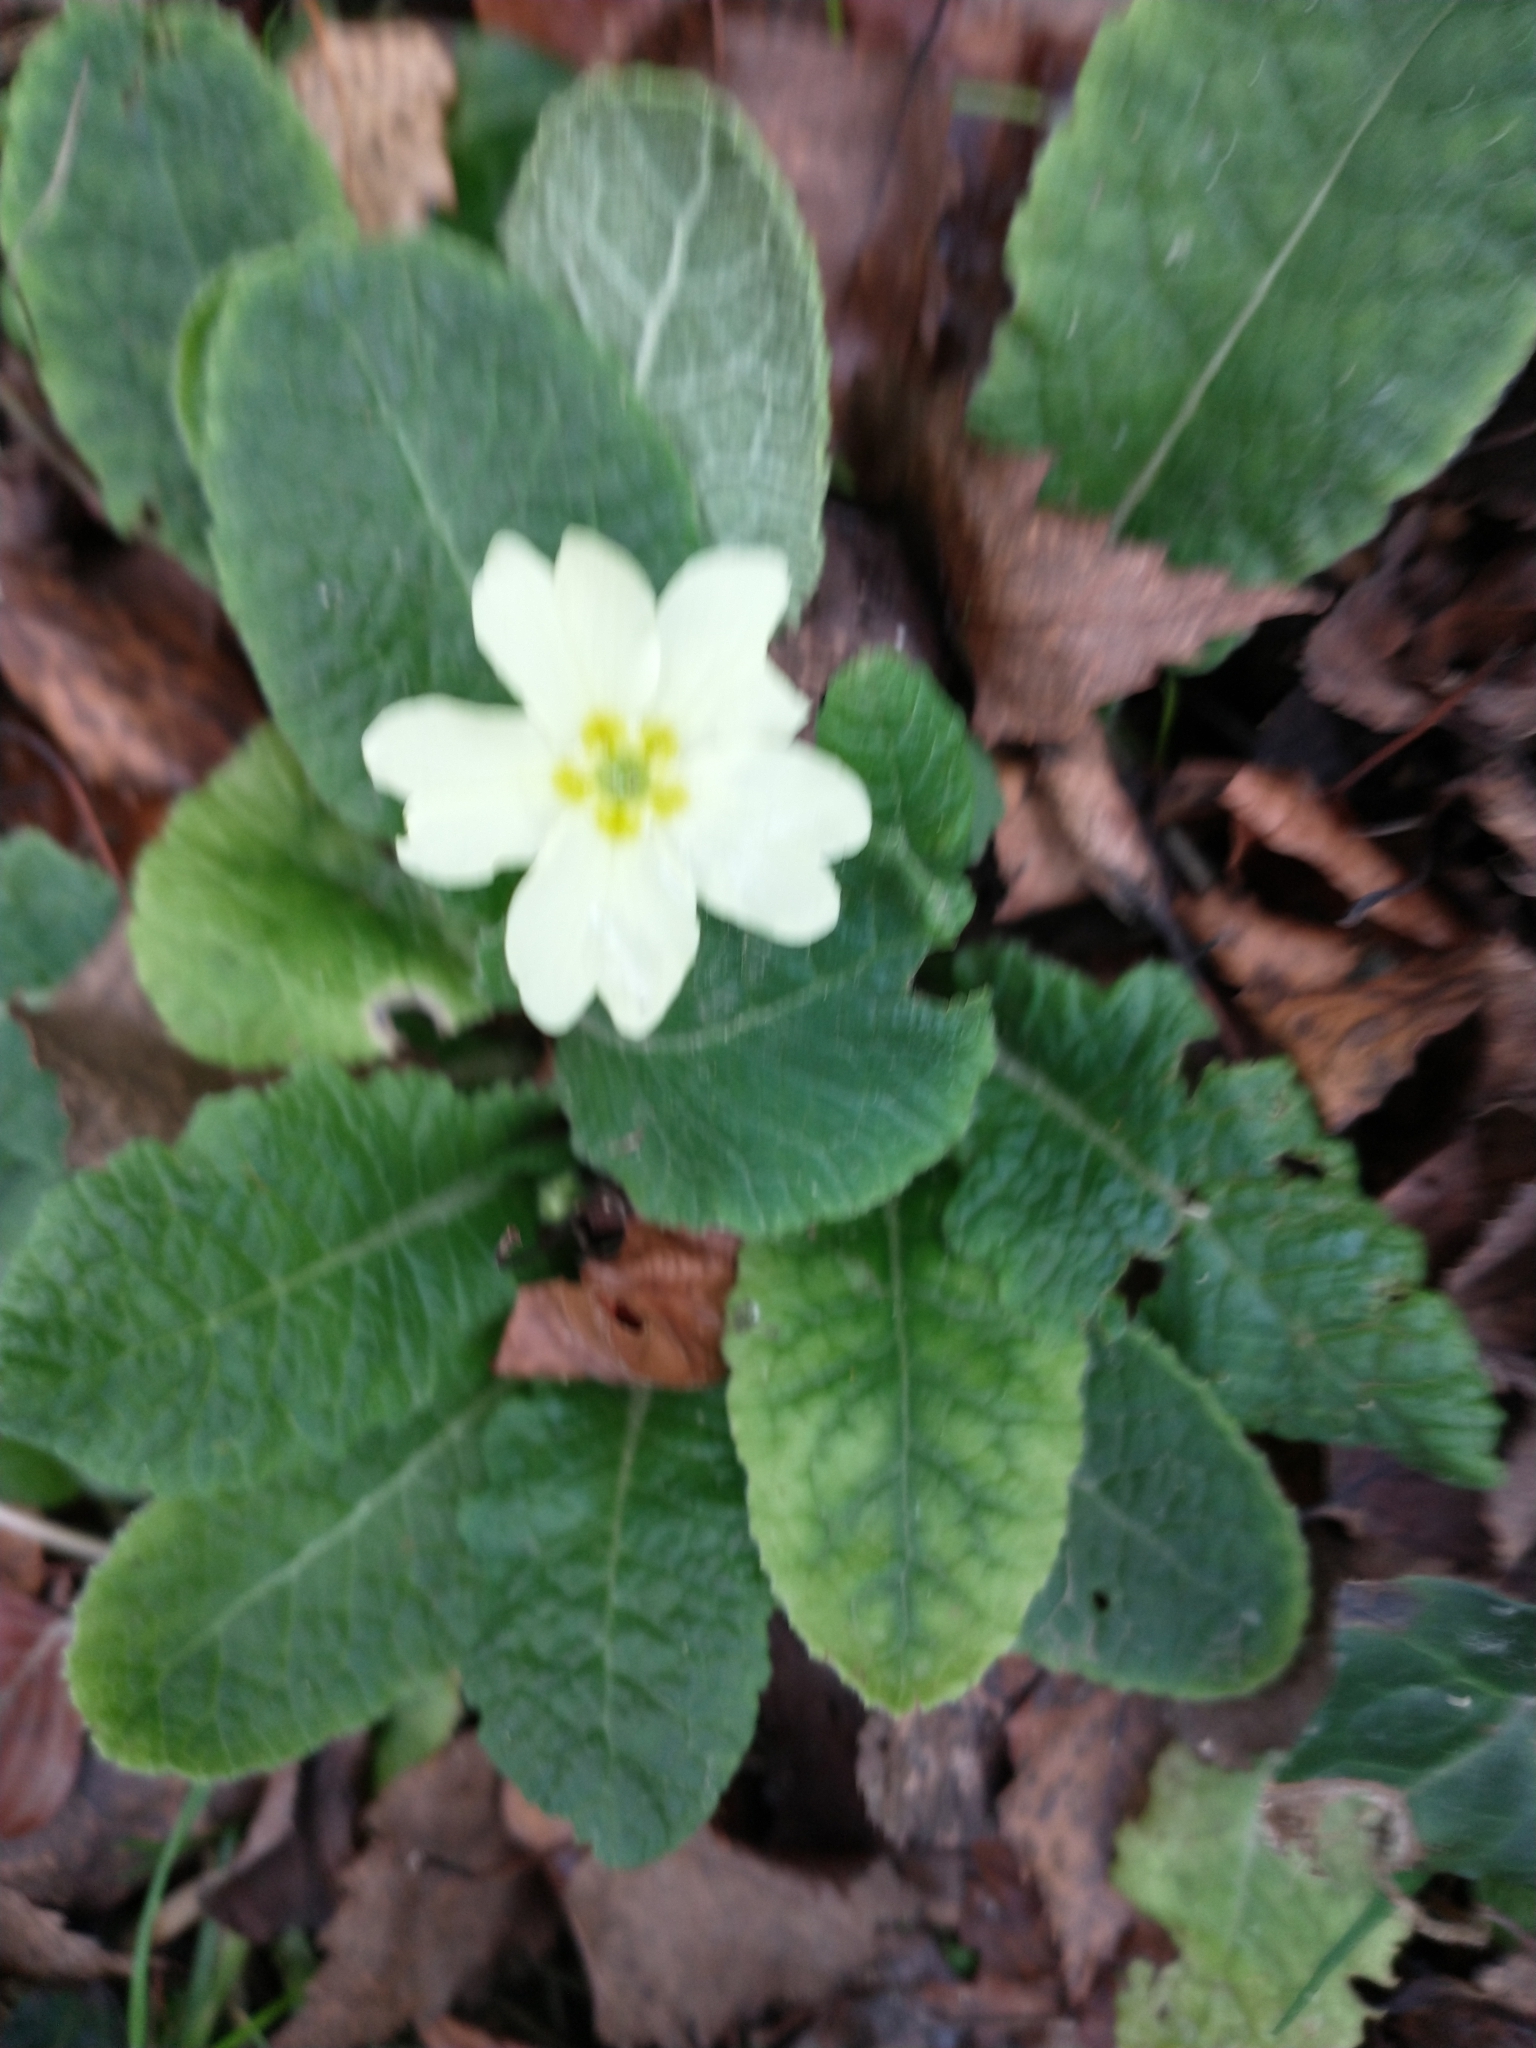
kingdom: Plantae
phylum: Tracheophyta
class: Magnoliopsida
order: Ericales
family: Primulaceae
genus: Primula
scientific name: Primula vulgaris
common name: Primrose
